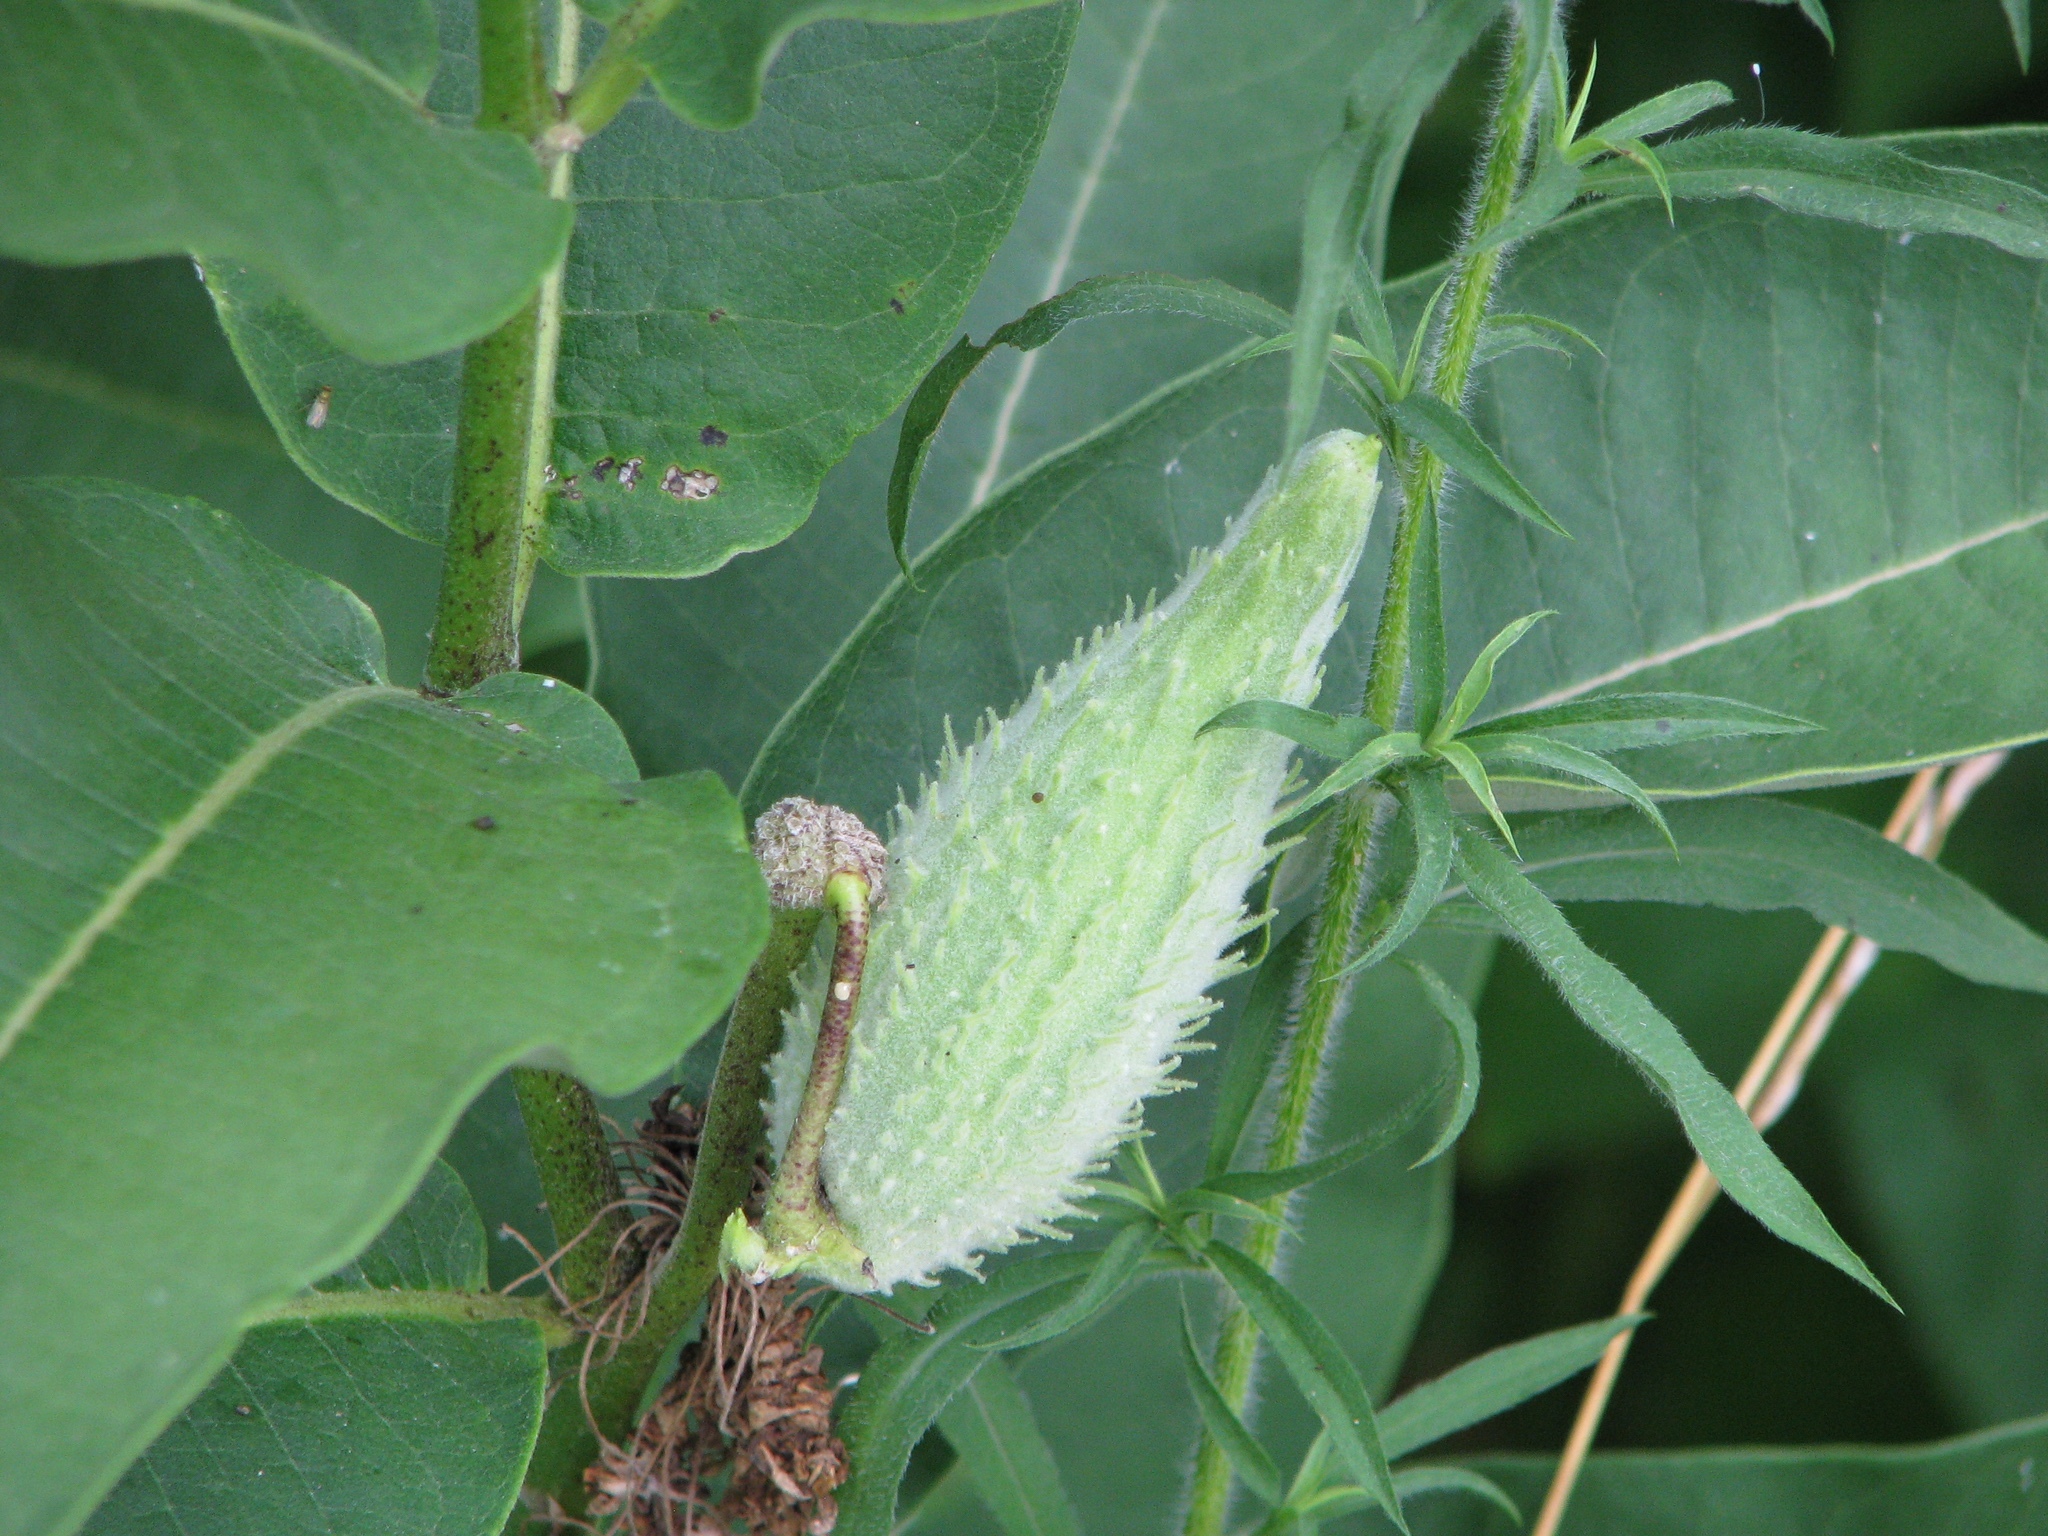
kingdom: Plantae
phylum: Tracheophyta
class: Magnoliopsida
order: Gentianales
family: Apocynaceae
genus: Asclepias
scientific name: Asclepias syriaca
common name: Common milkweed
